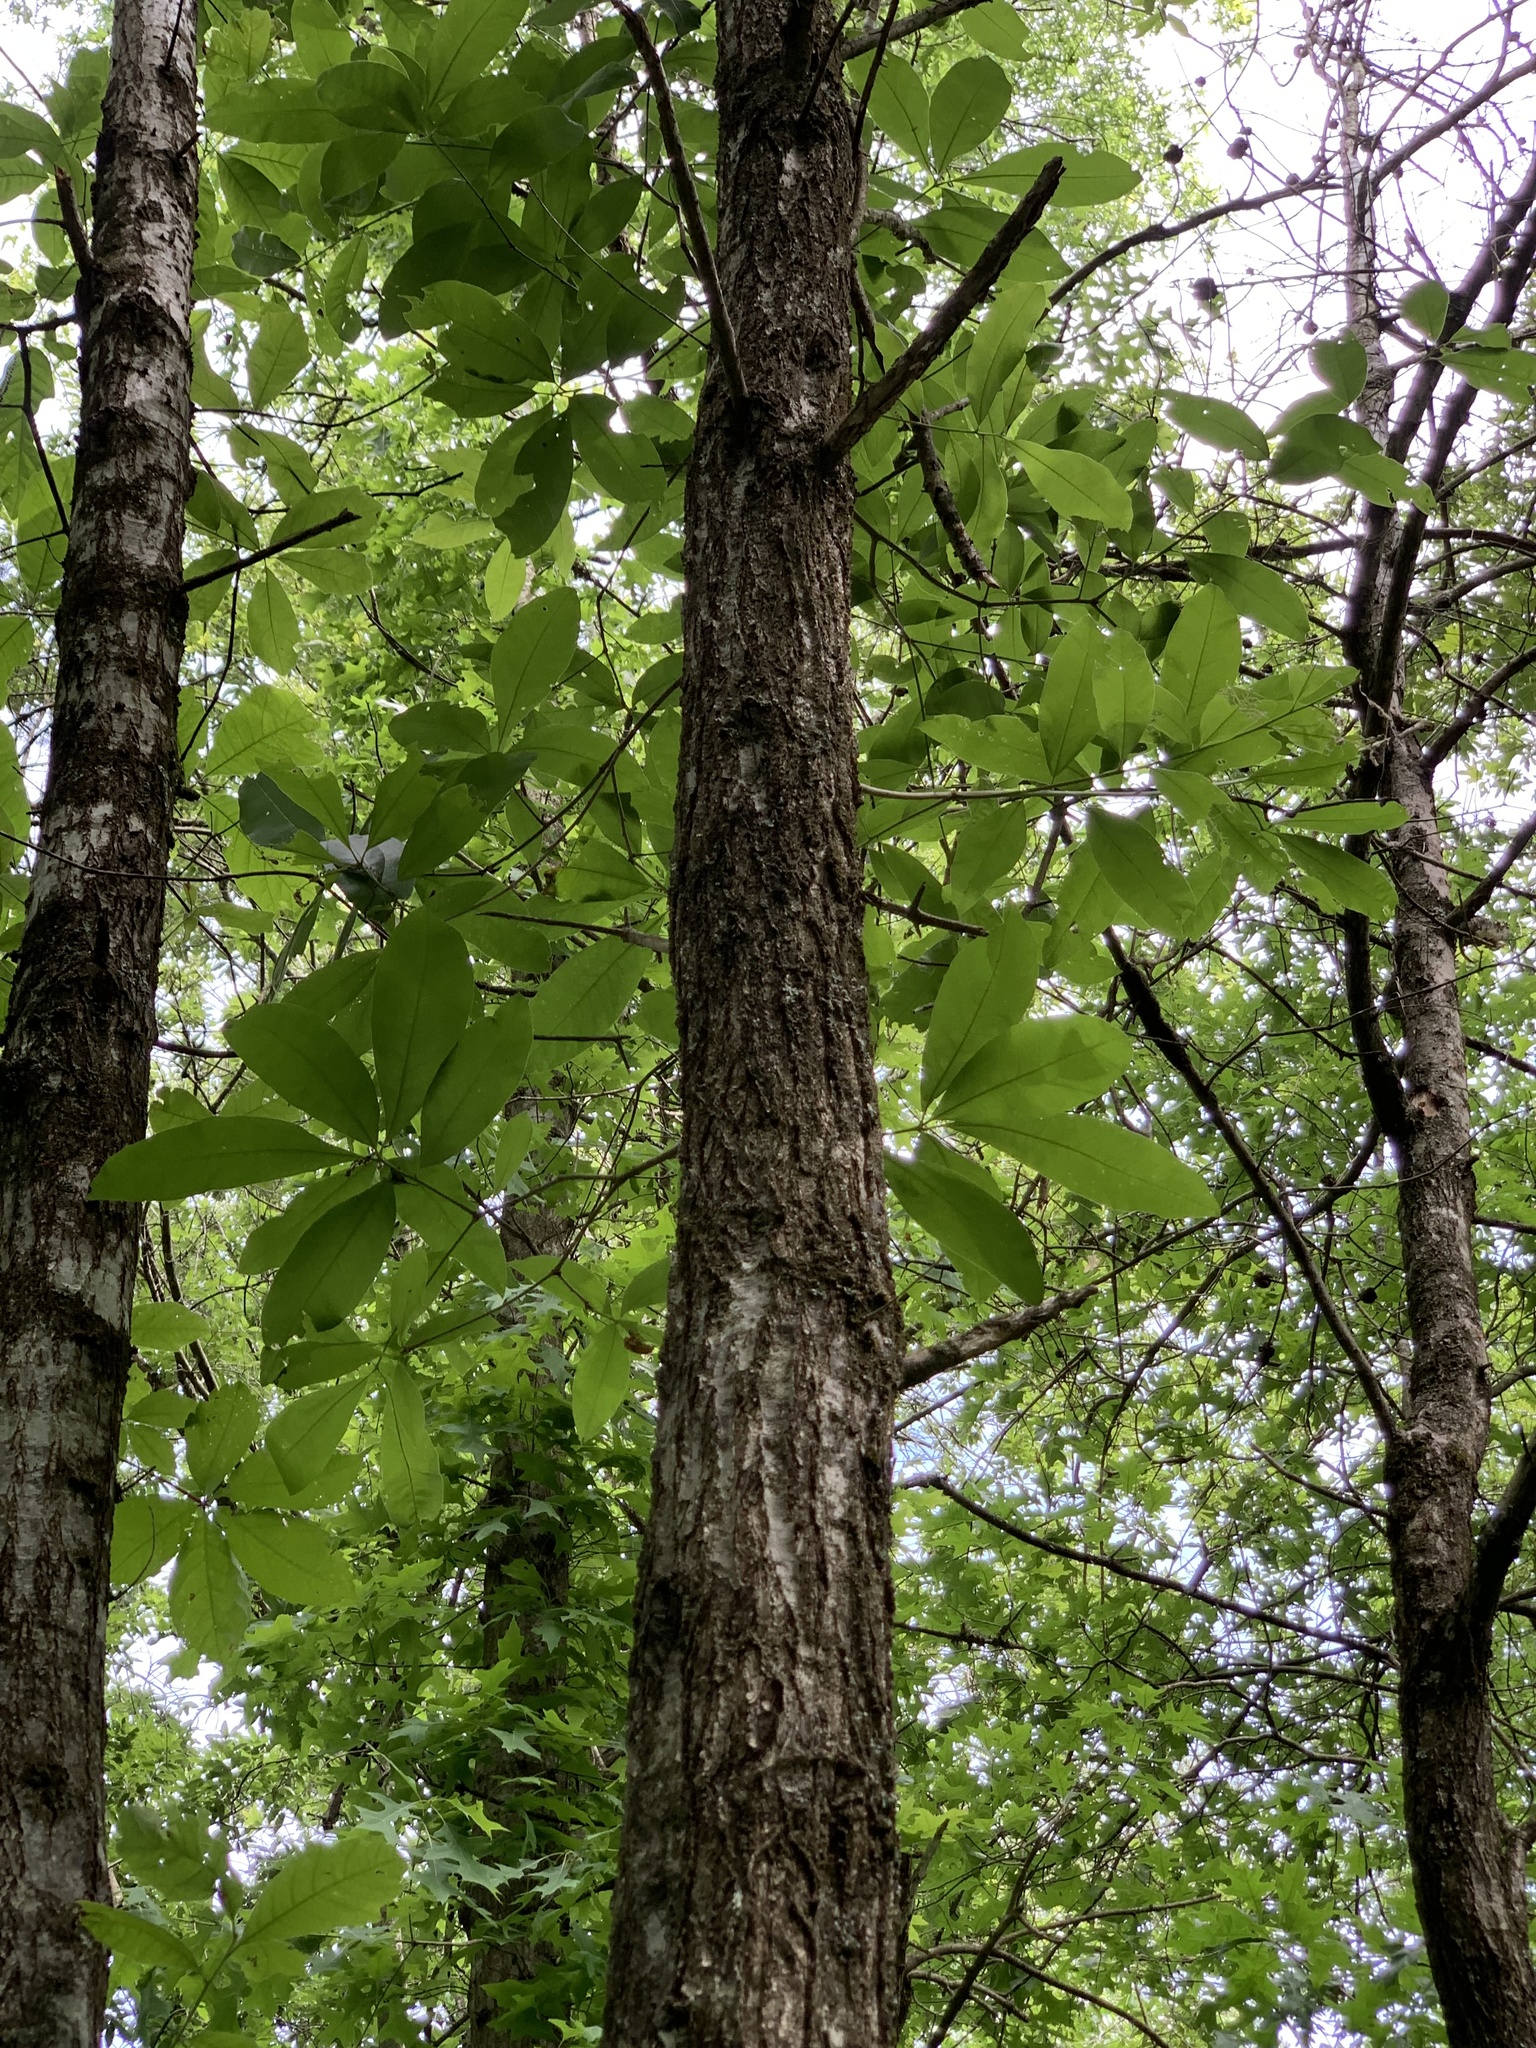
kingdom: Plantae
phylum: Tracheophyta
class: Magnoliopsida
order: Fagales
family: Fagaceae
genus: Quercus
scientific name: Quercus imbricaria
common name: Shingle oak
